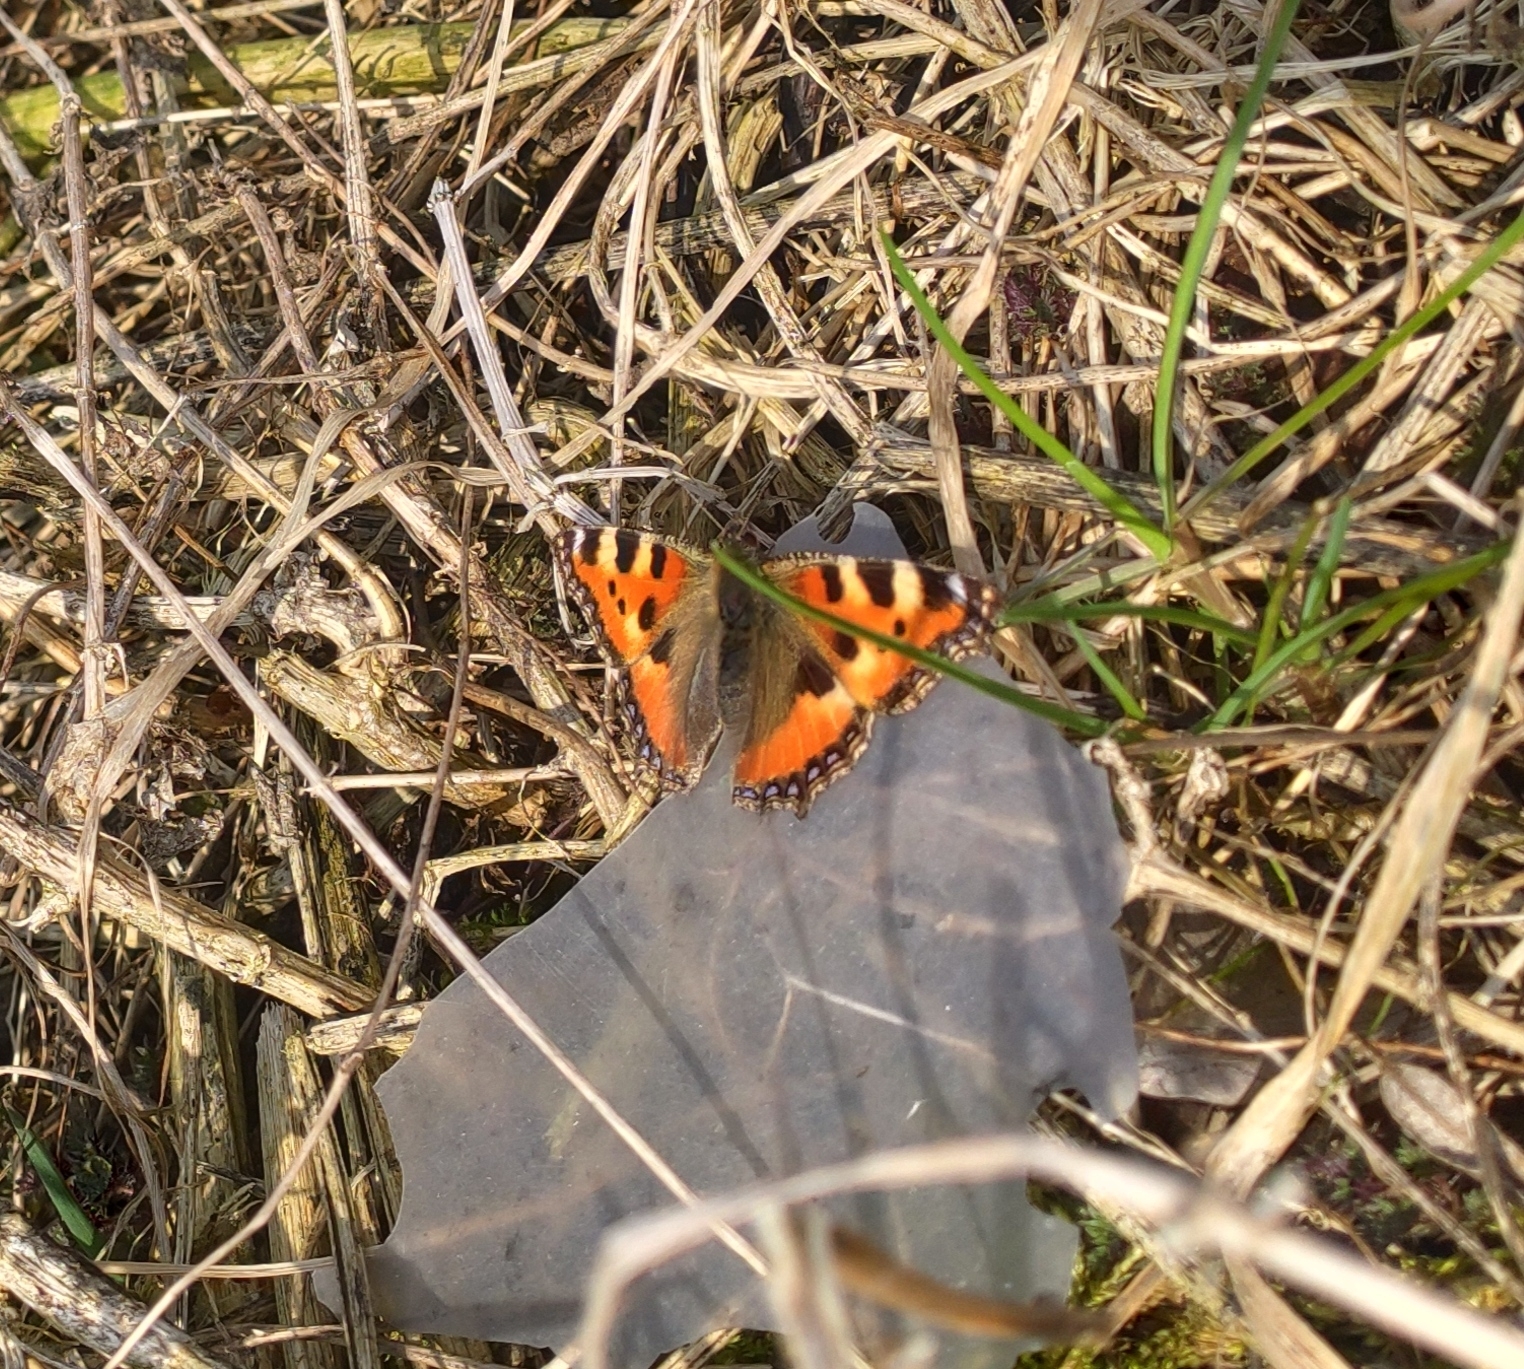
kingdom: Animalia
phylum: Arthropoda
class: Insecta
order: Lepidoptera
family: Nymphalidae
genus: Aglais
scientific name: Aglais urticae
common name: Small tortoiseshell
